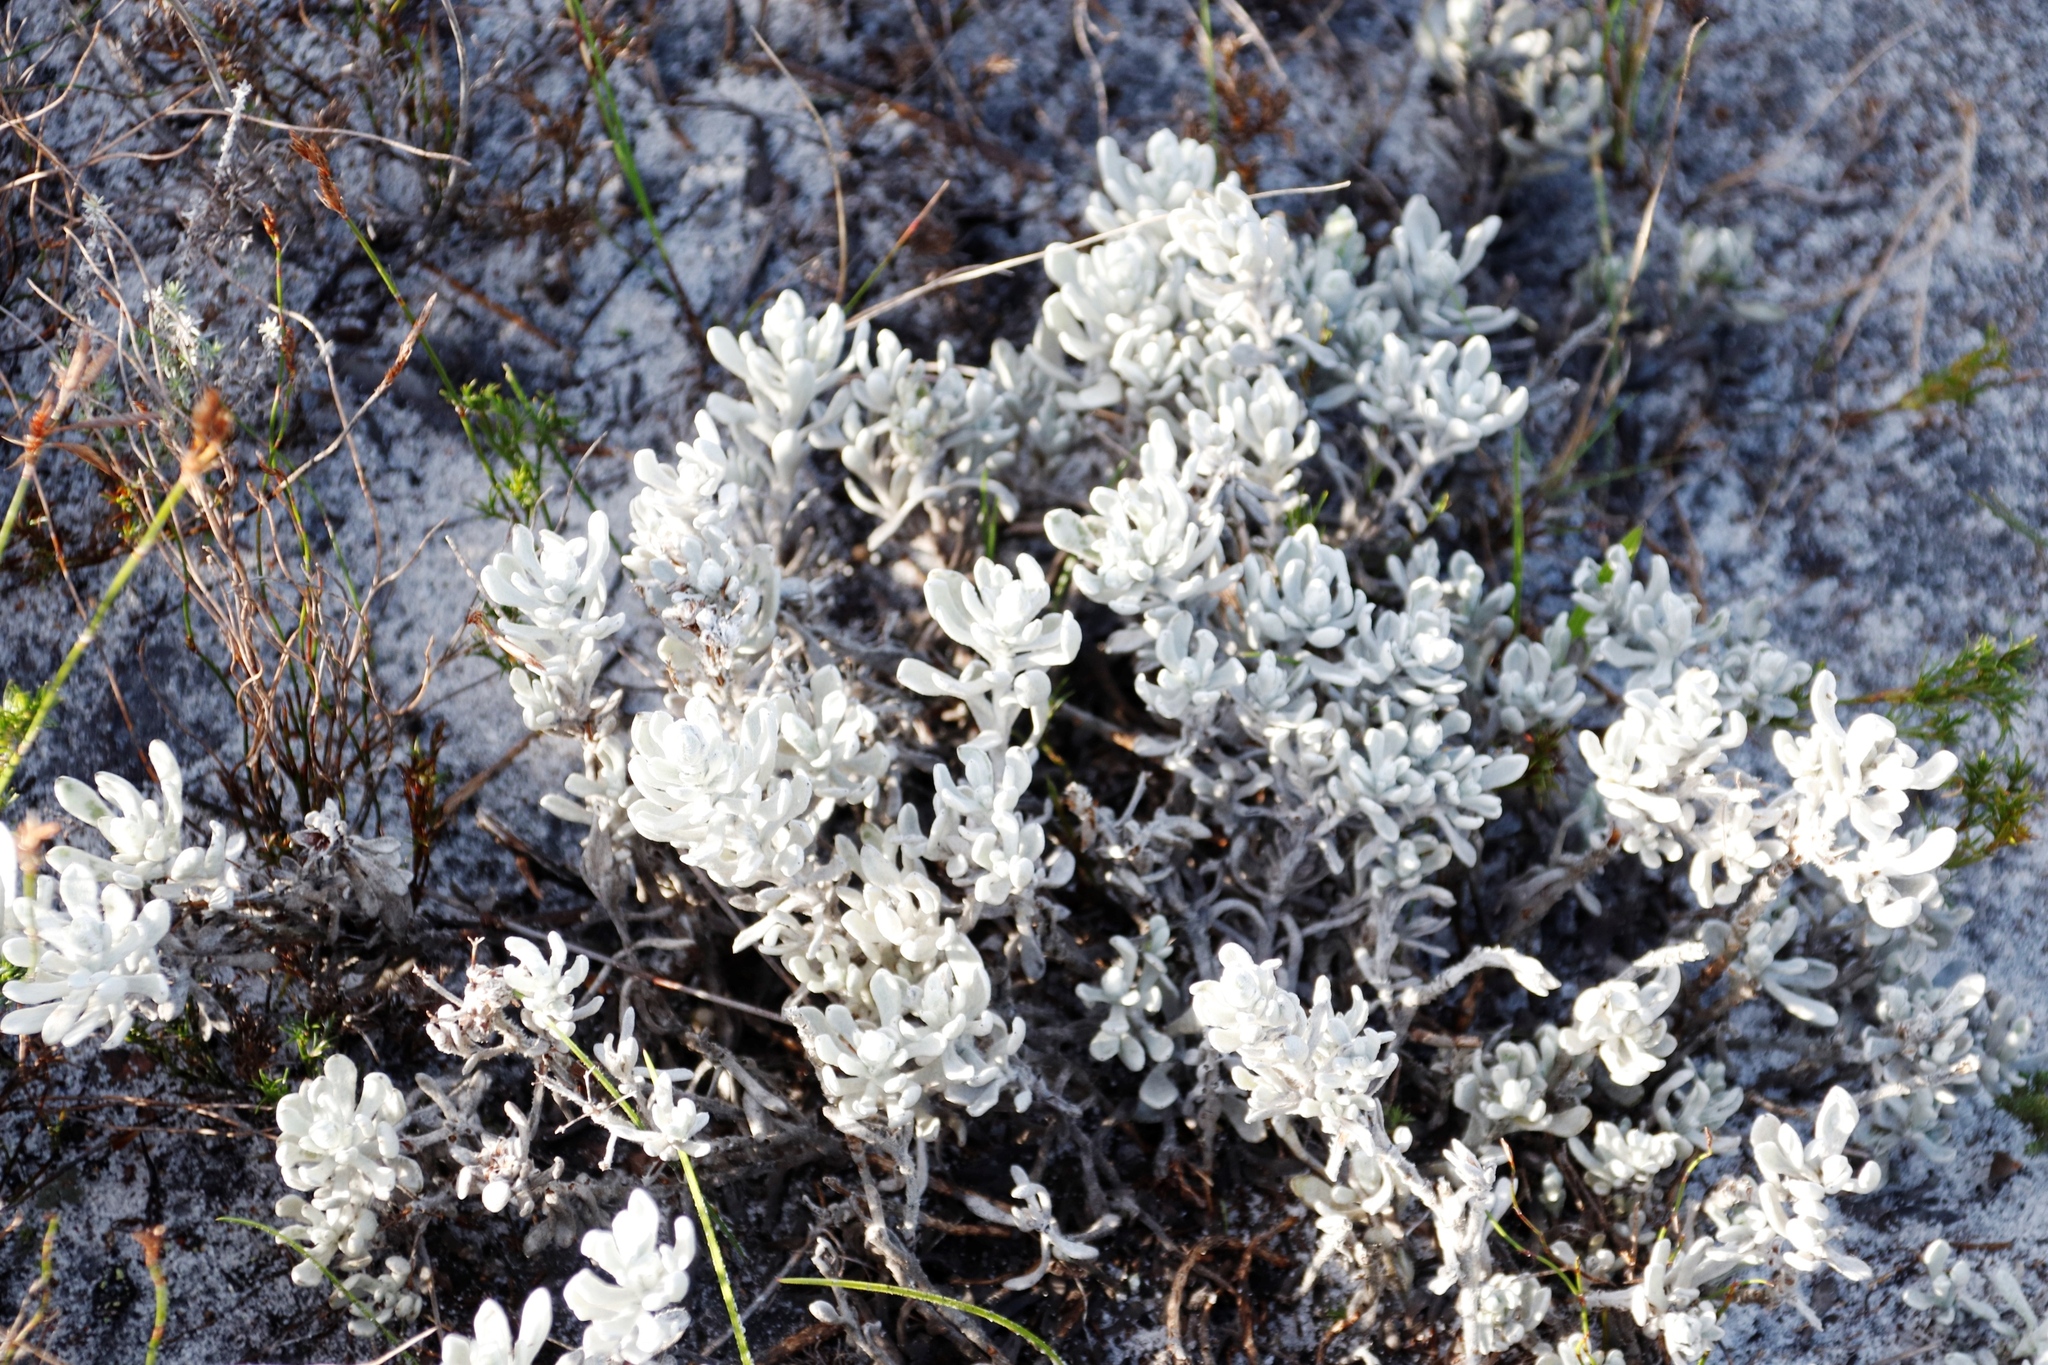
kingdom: Plantae
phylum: Tracheophyta
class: Magnoliopsida
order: Asterales
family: Asteraceae
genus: Petalacte
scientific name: Petalacte coronata
